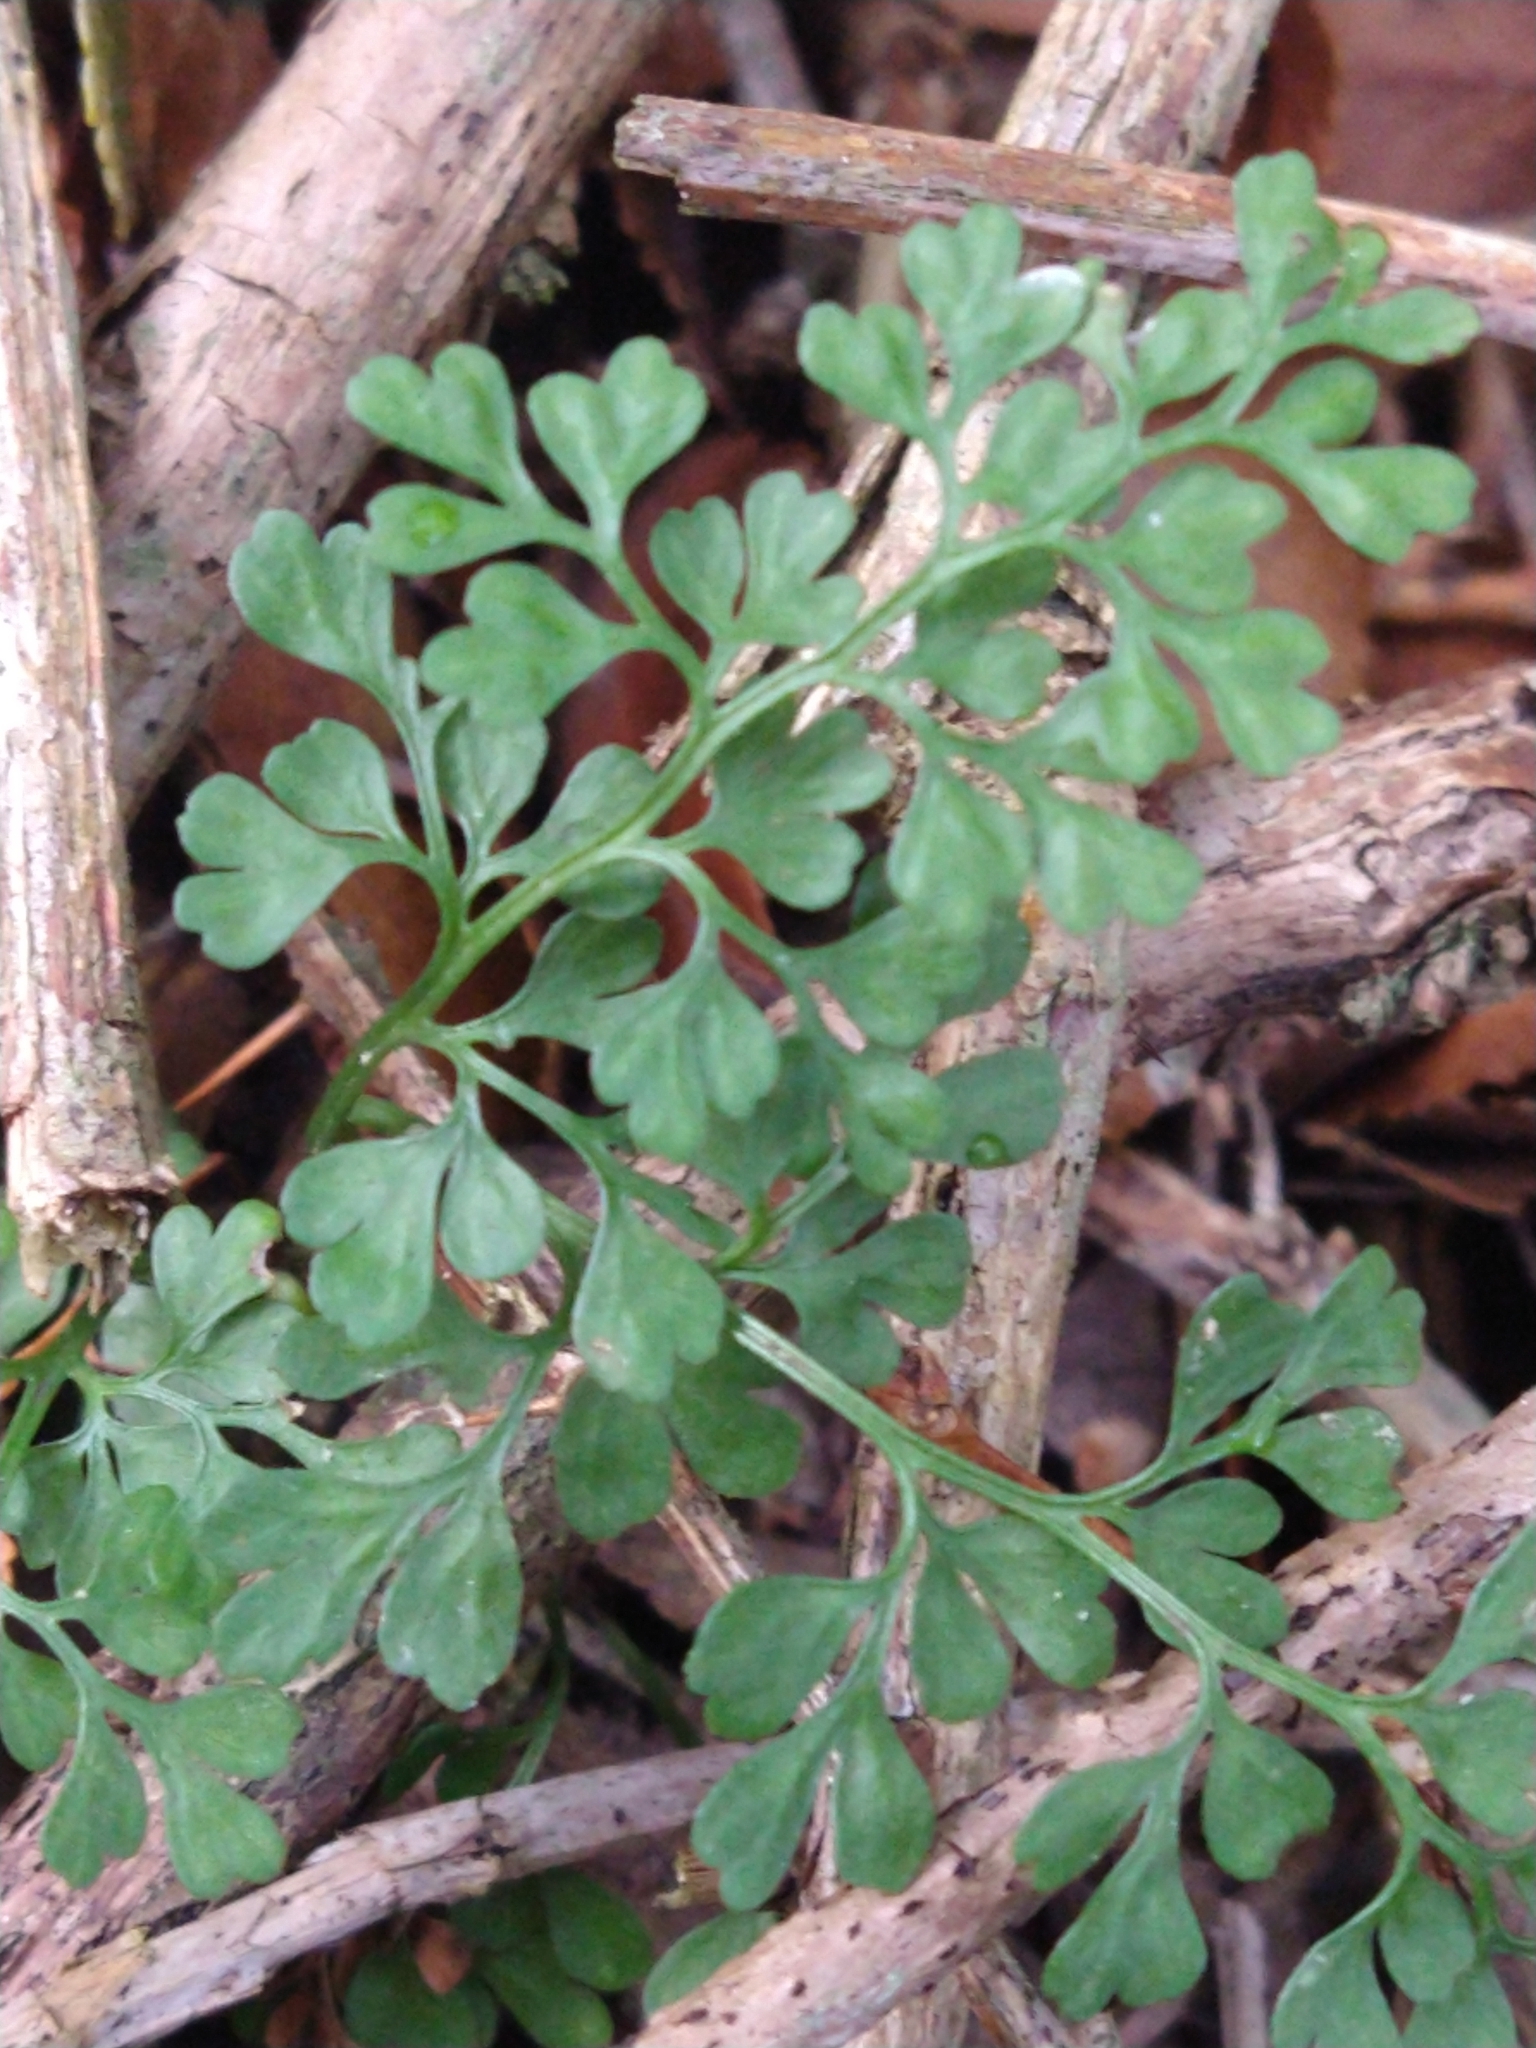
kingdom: Plantae
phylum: Tracheophyta
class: Polypodiopsida
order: Polypodiales
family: Aspleniaceae
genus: Asplenium
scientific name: Asplenium dareoides
